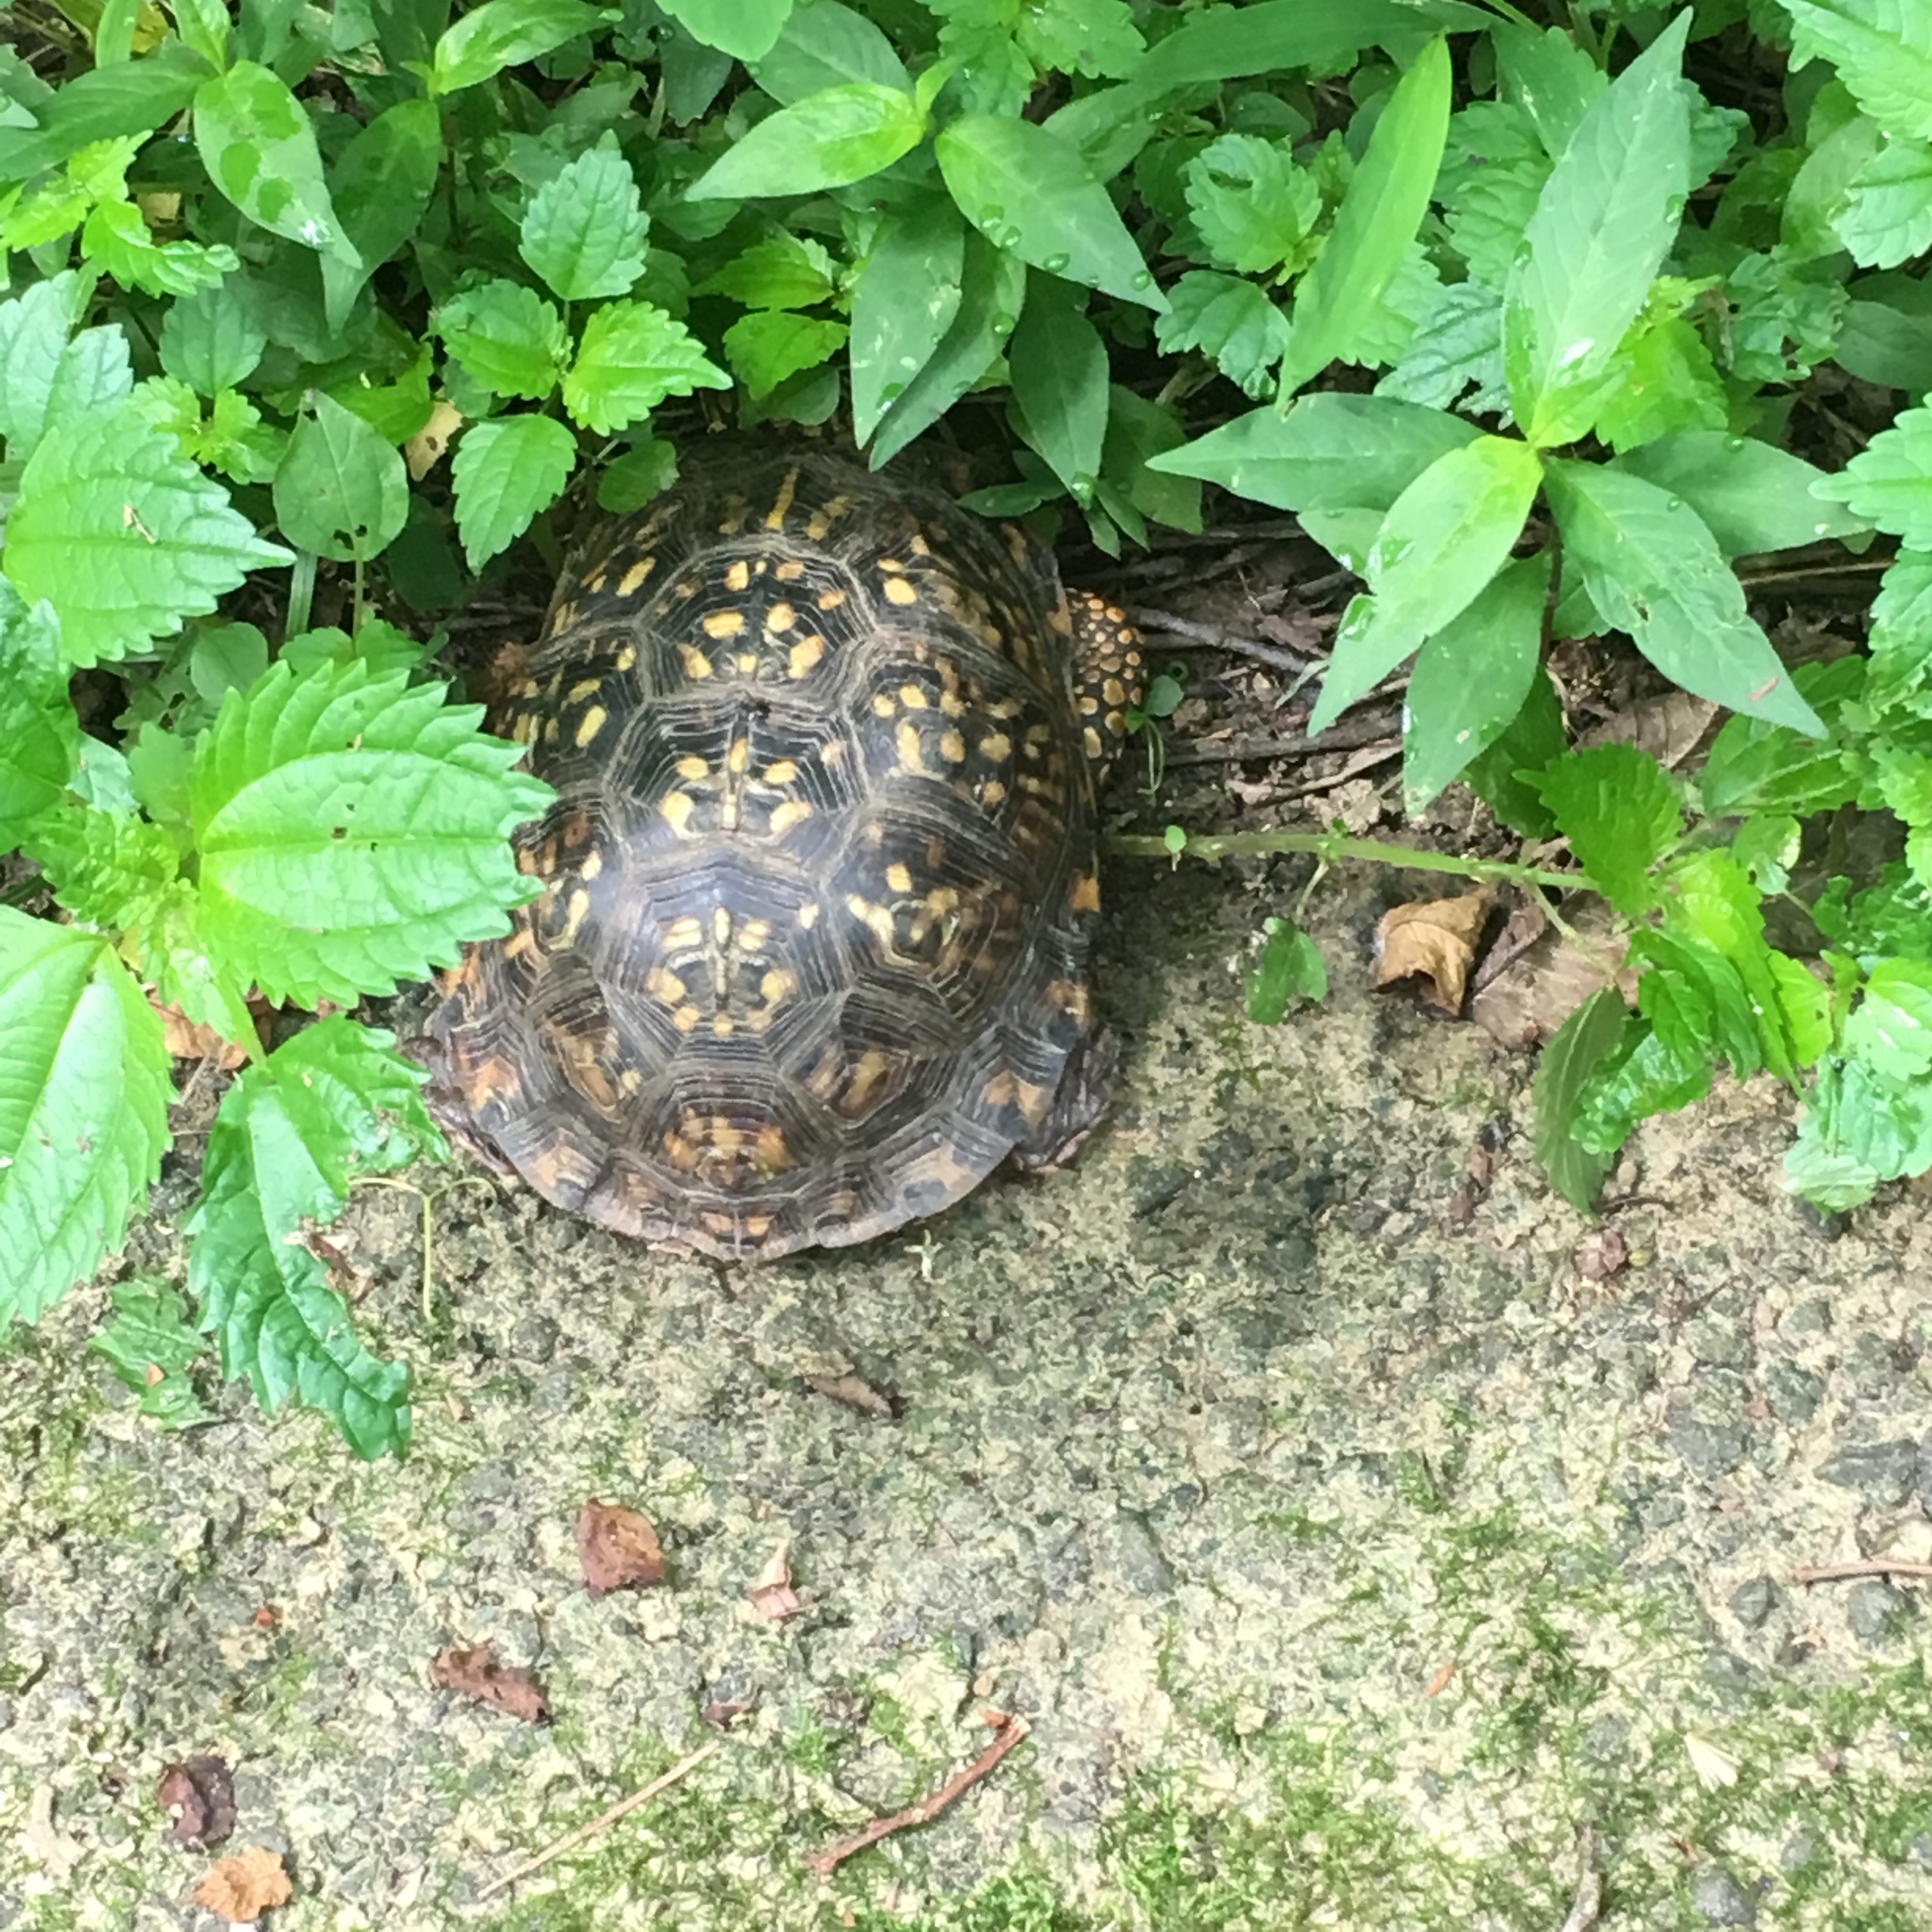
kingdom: Animalia
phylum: Chordata
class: Testudines
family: Emydidae
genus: Terrapene
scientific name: Terrapene carolina
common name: Common box turtle
